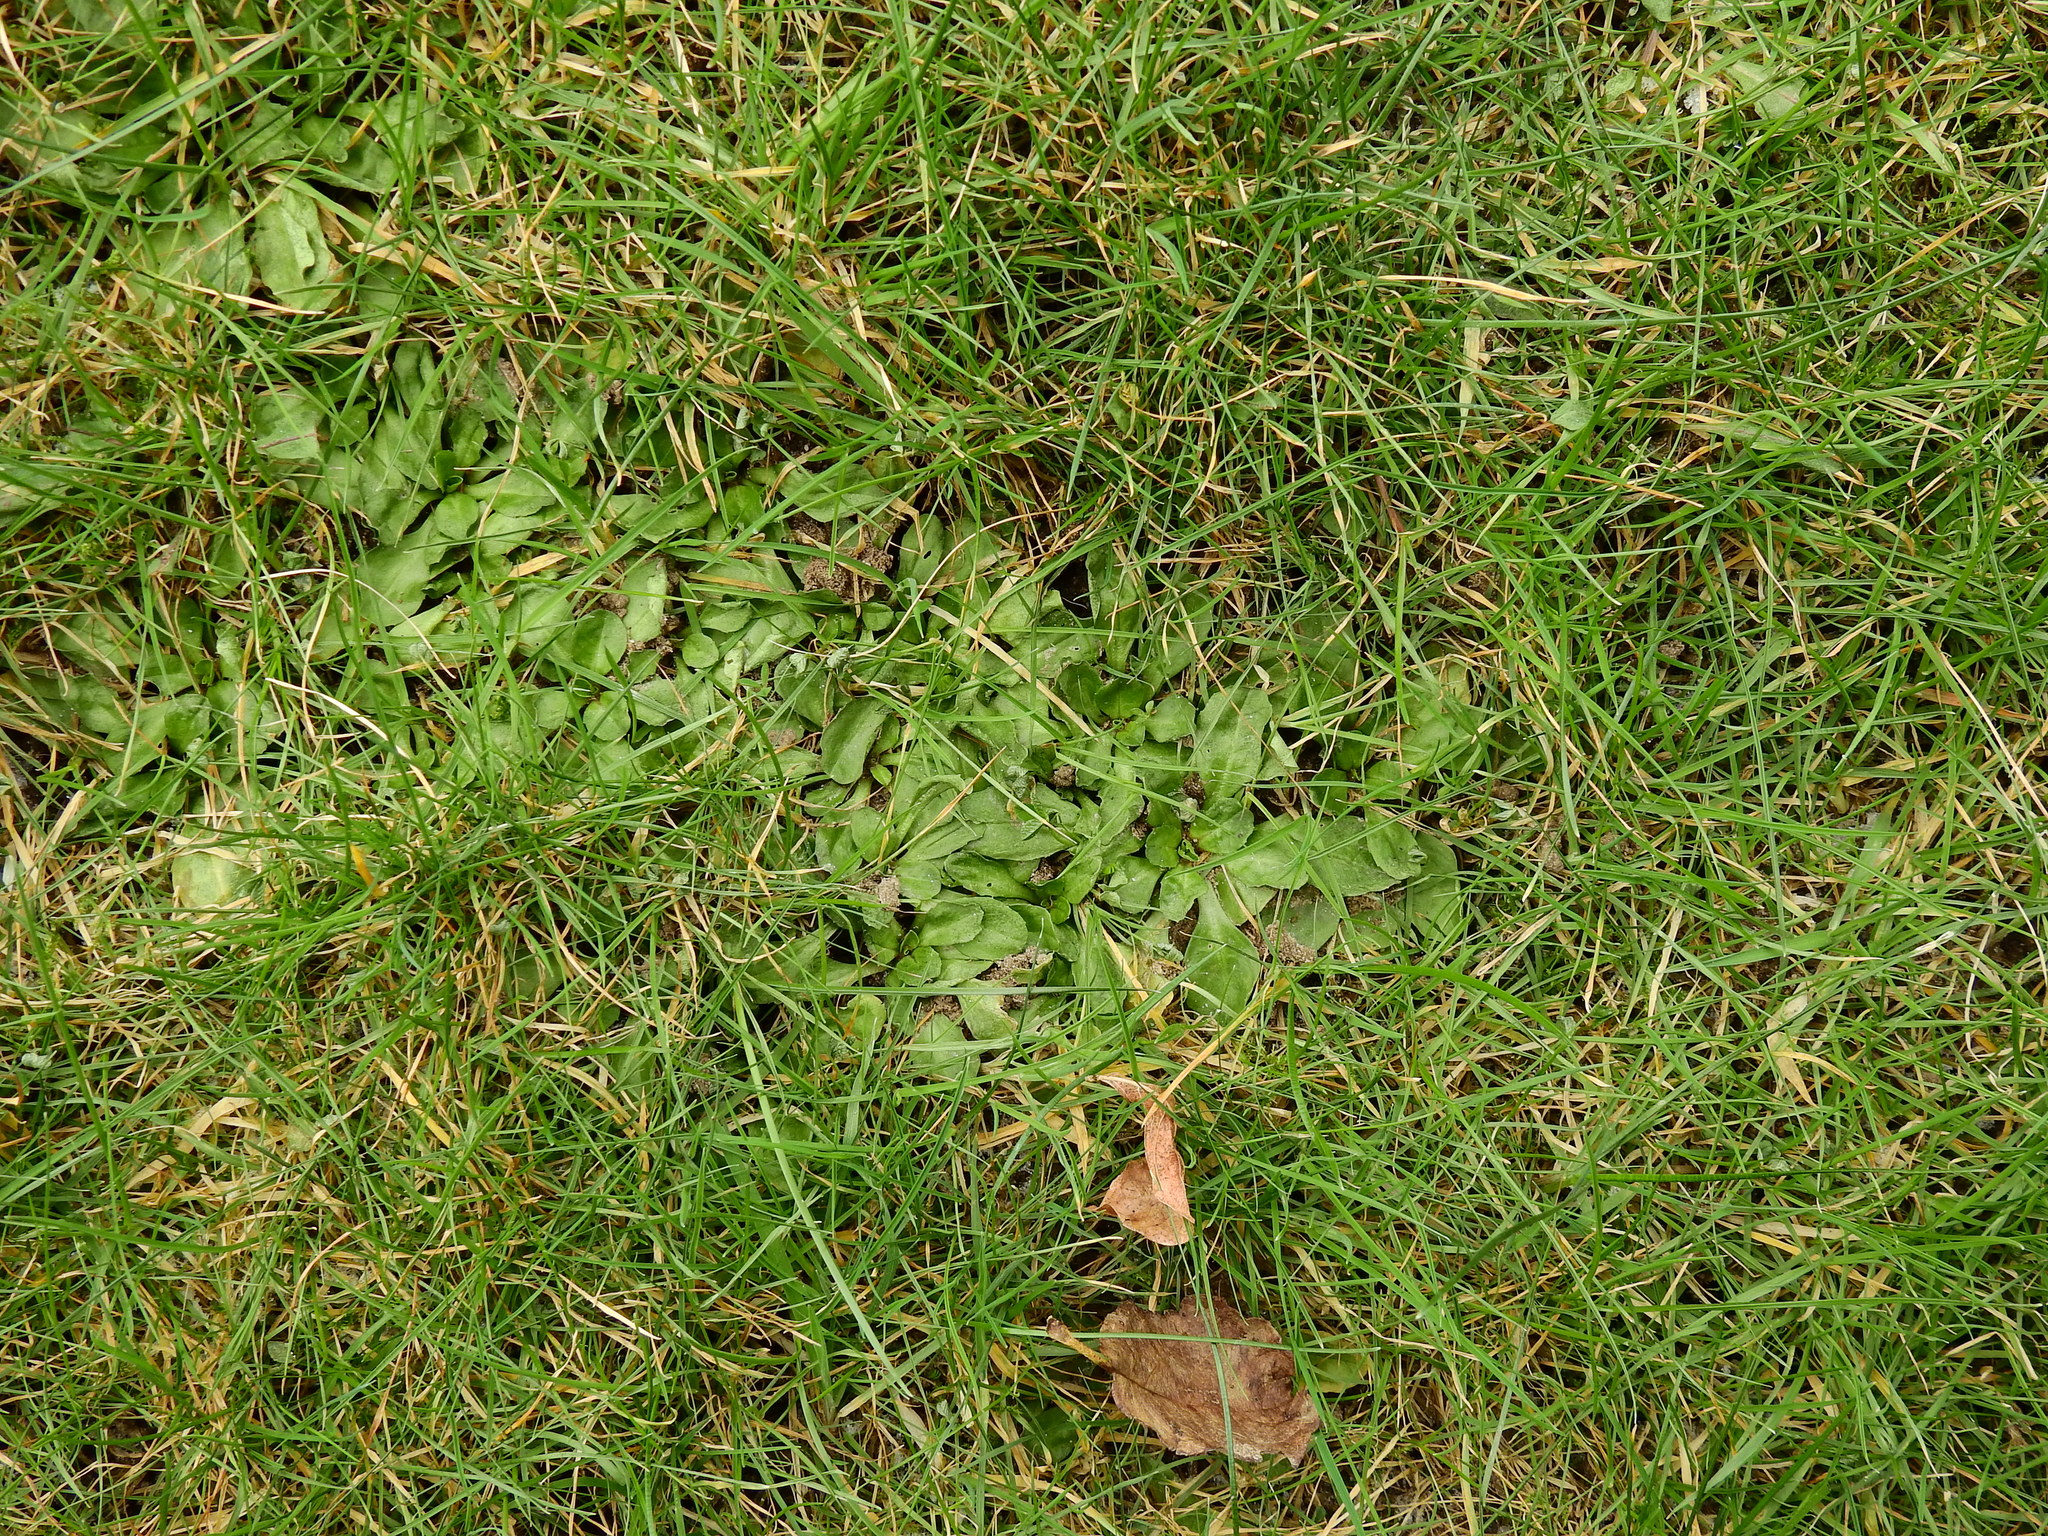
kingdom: Plantae
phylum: Tracheophyta
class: Magnoliopsida
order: Asterales
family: Asteraceae
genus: Bellis
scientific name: Bellis perennis
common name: Lawndaisy
